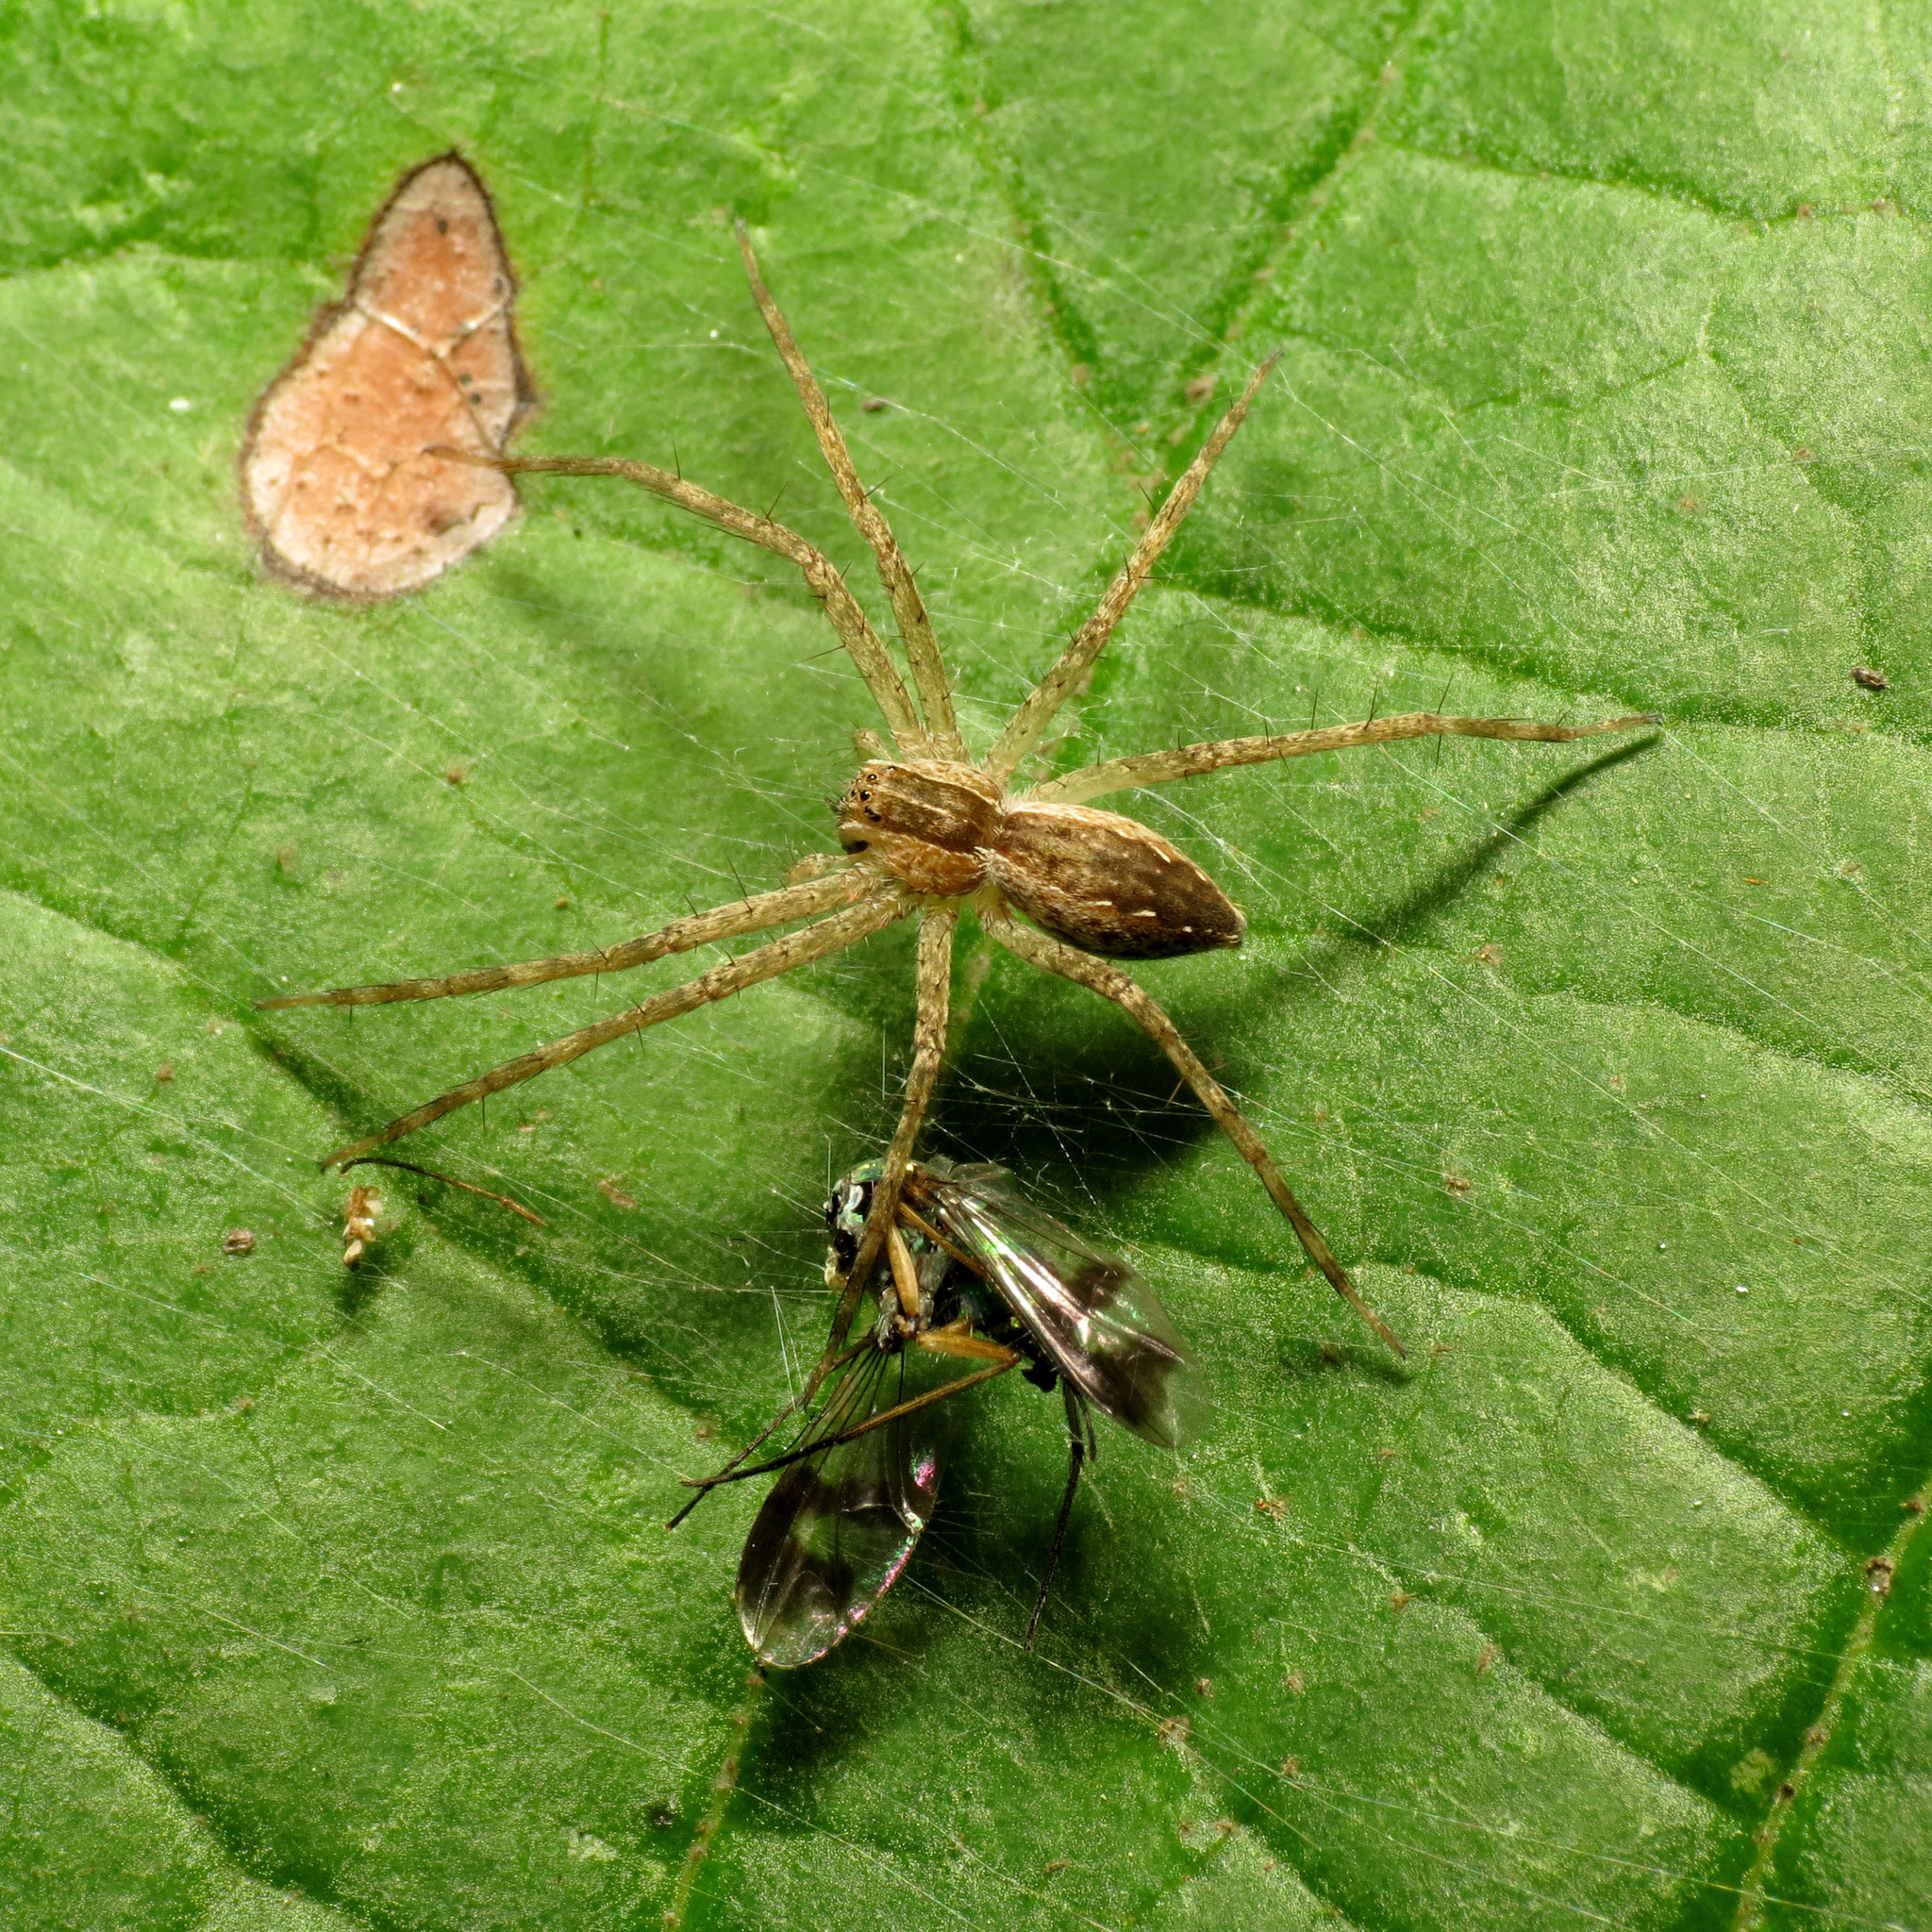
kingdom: Animalia
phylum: Arthropoda
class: Arachnida
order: Araneae
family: Pisauridae
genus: Pisaurina
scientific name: Pisaurina mira
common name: American nursery web spider
